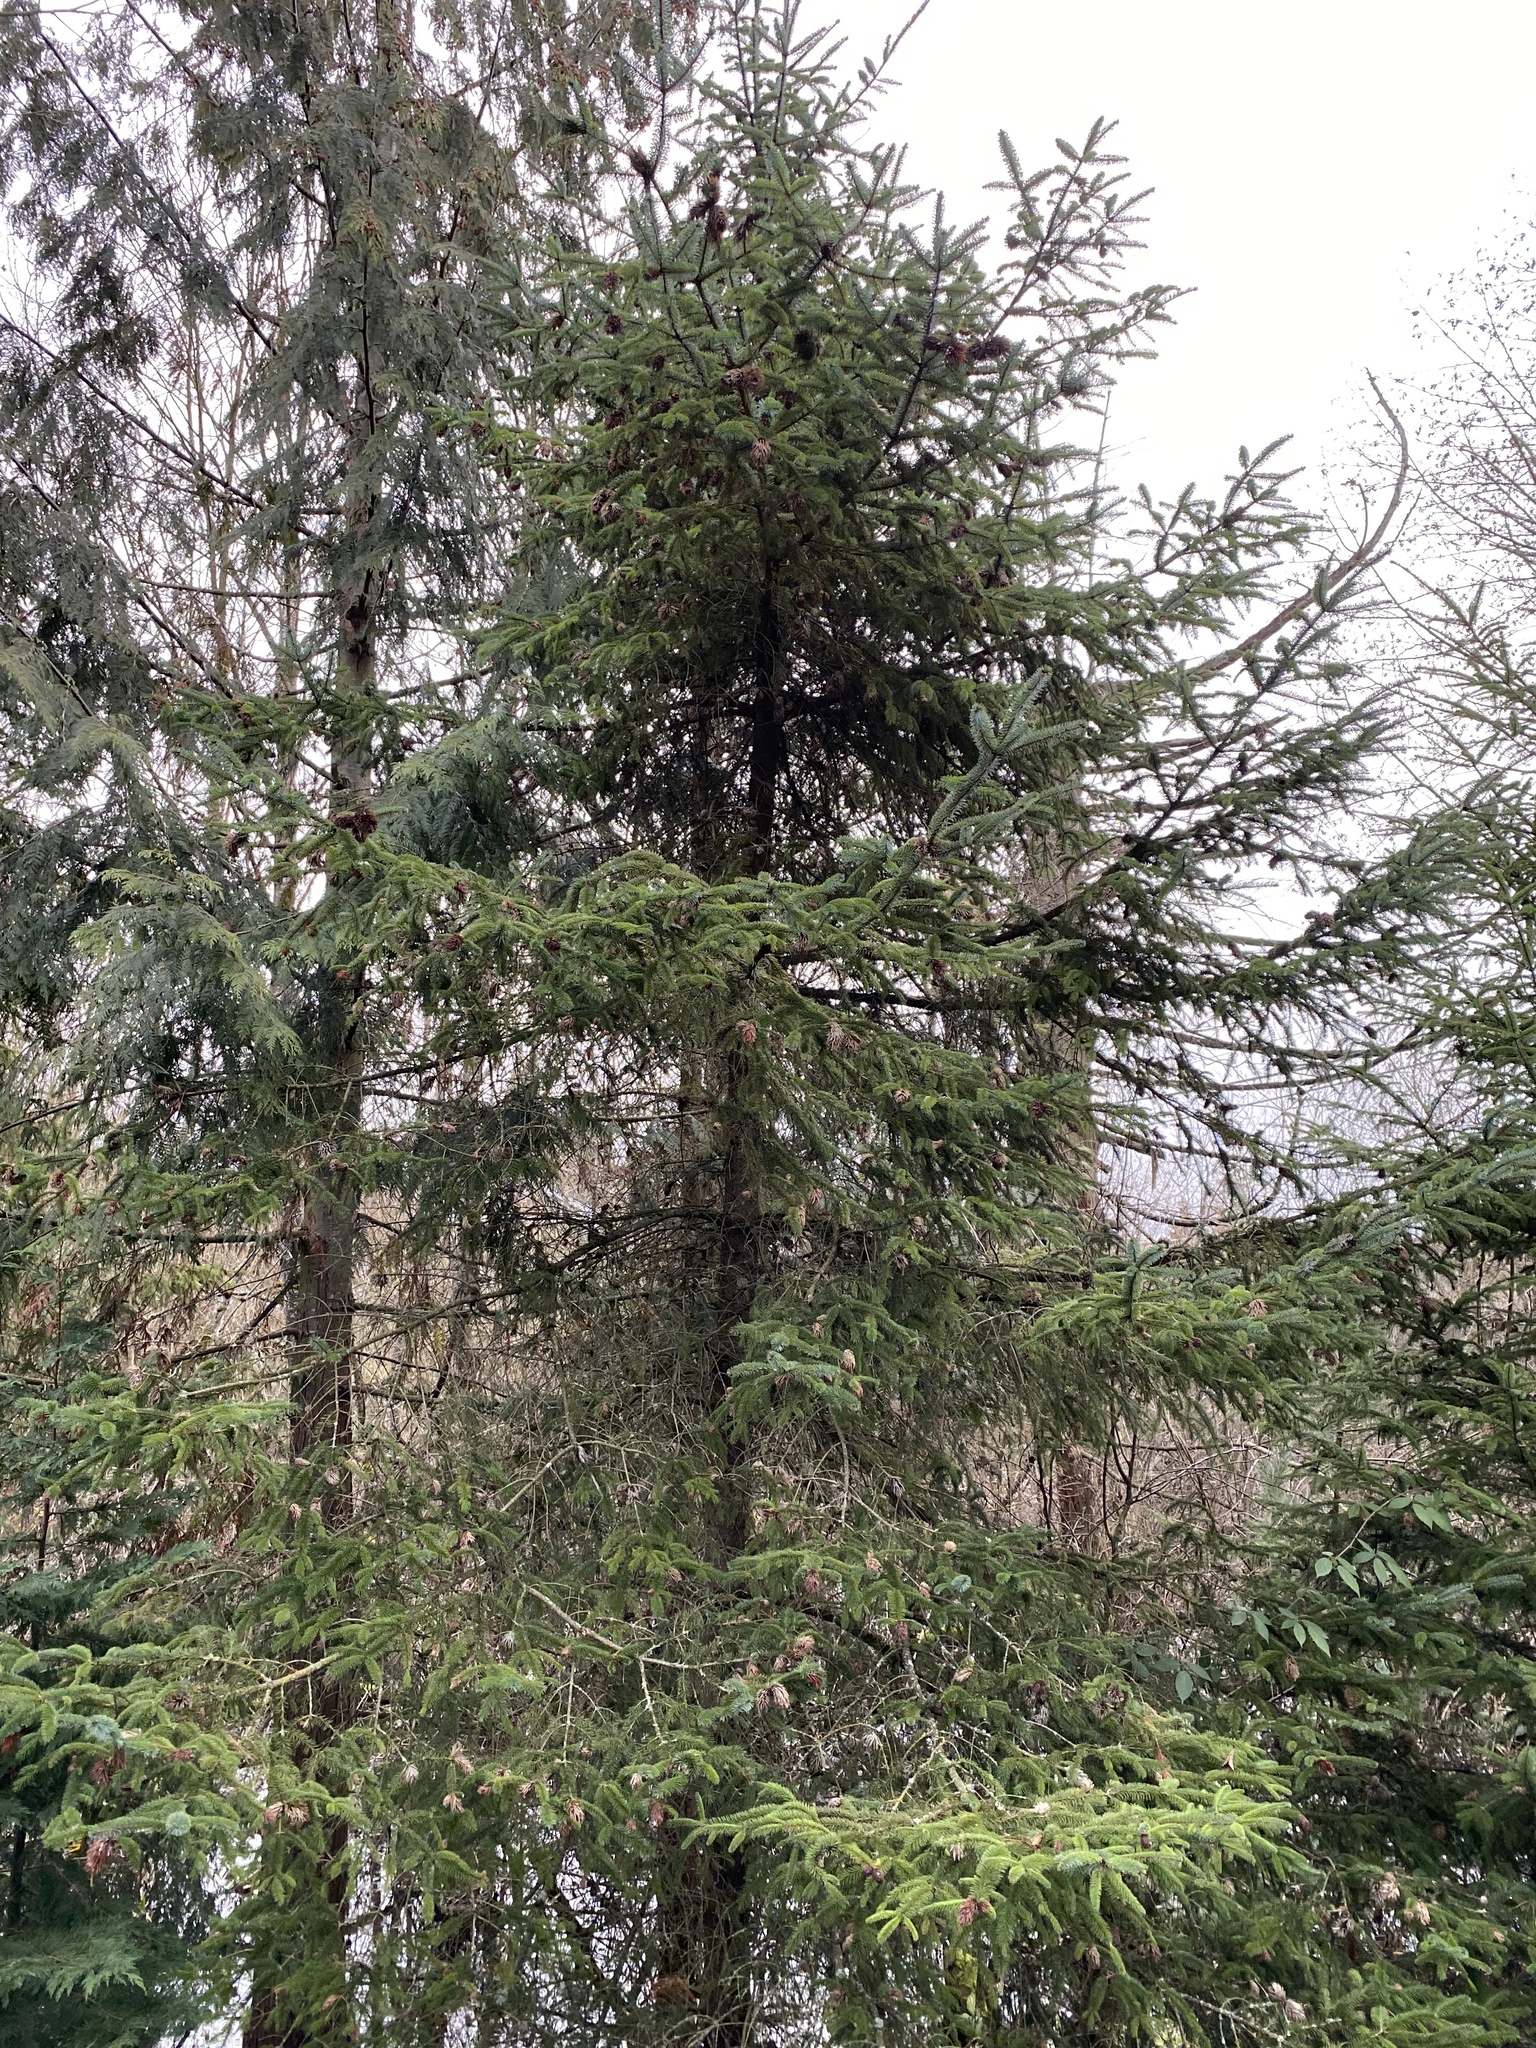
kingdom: Plantae
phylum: Tracheophyta
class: Pinopsida
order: Pinales
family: Pinaceae
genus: Picea
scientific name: Picea sitchensis
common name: Sitka spruce
